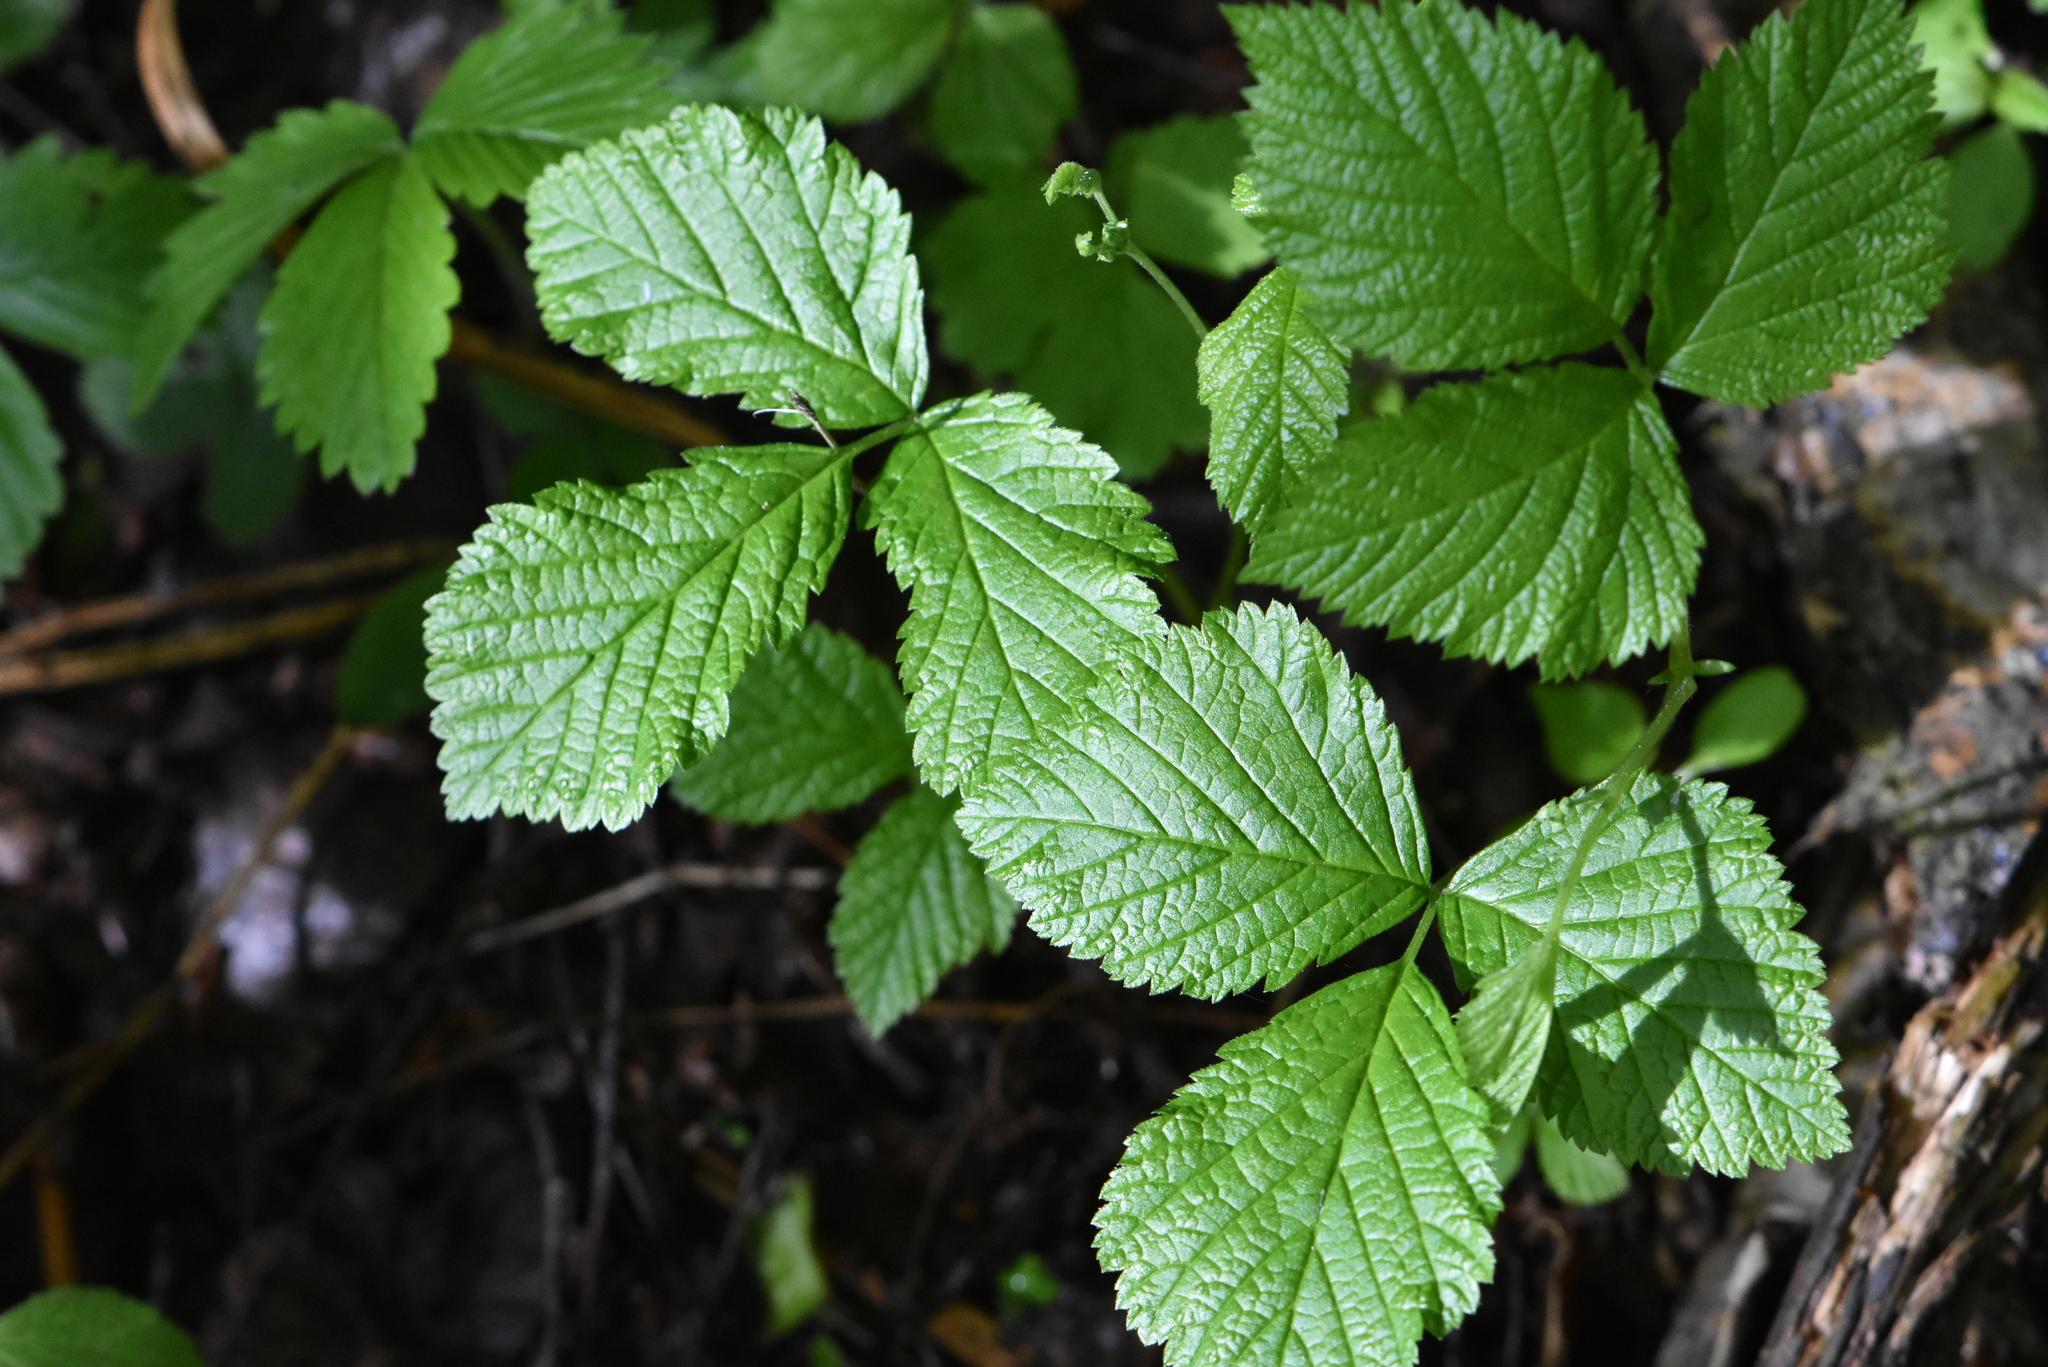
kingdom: Plantae
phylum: Tracheophyta
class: Magnoliopsida
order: Rosales
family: Rosaceae
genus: Rubus
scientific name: Rubus saxatilis
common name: Stone bramble
